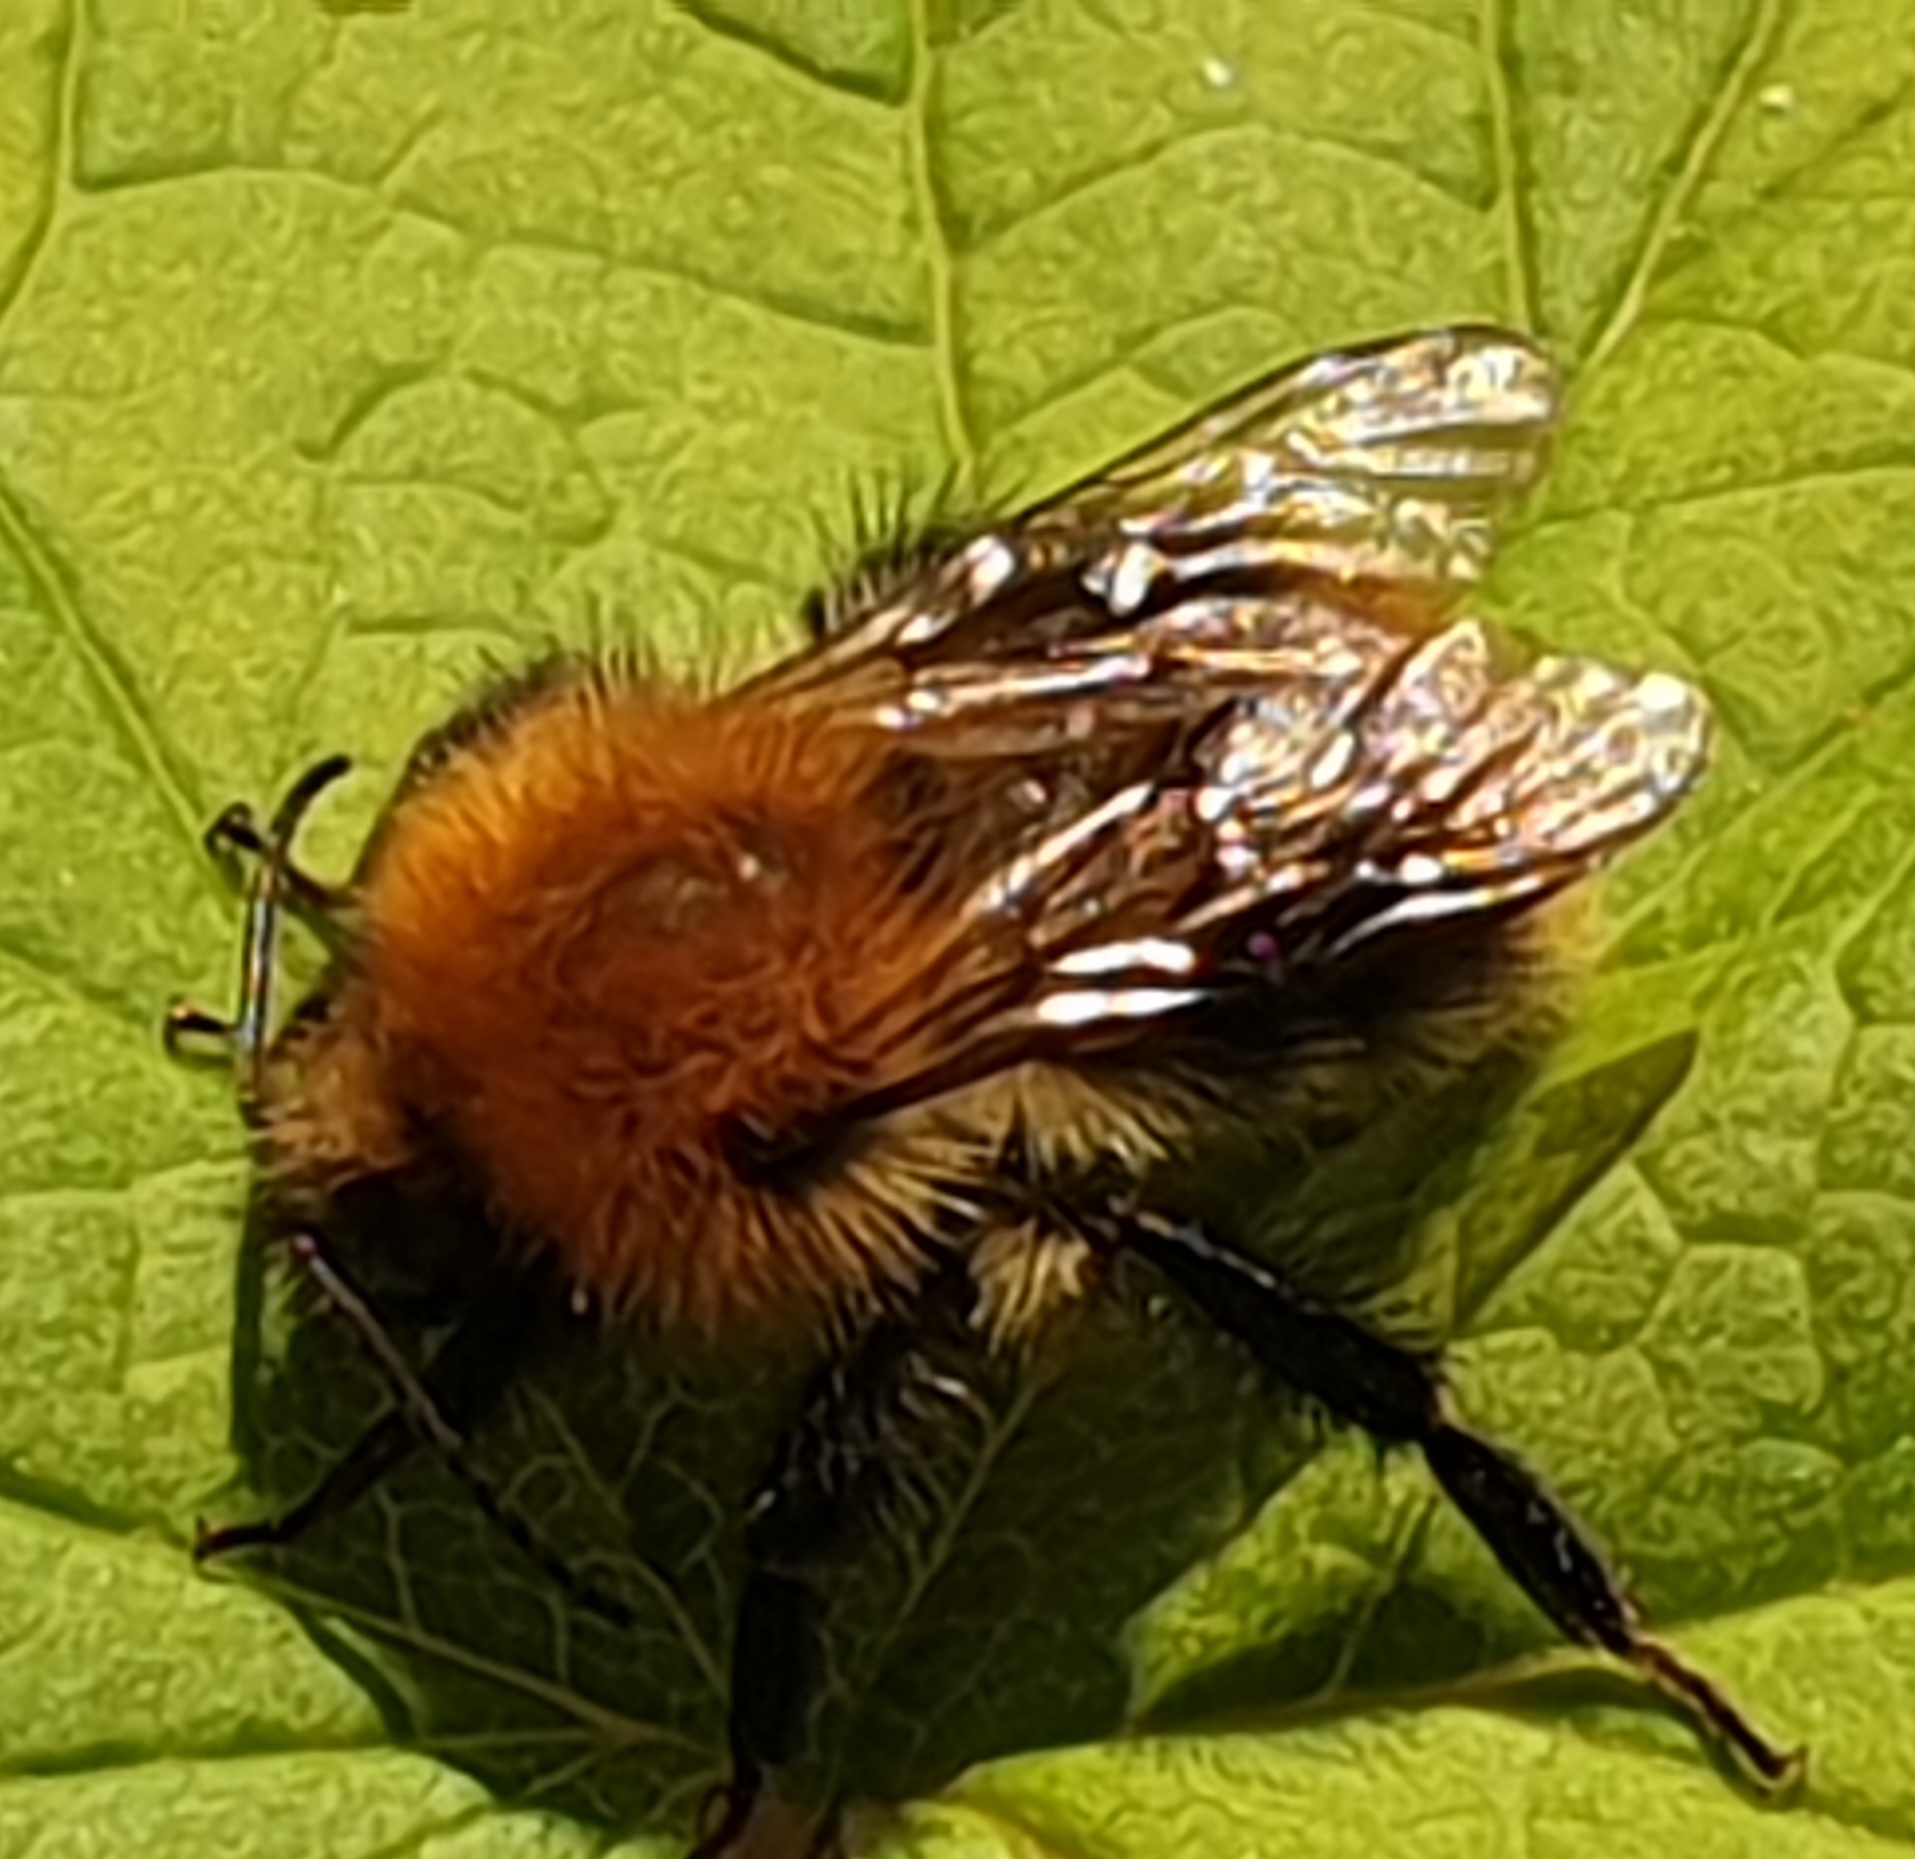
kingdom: Animalia
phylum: Arthropoda
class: Insecta
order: Hymenoptera
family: Apidae
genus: Bombus
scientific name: Bombus pascuorum
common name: Common carder bee
